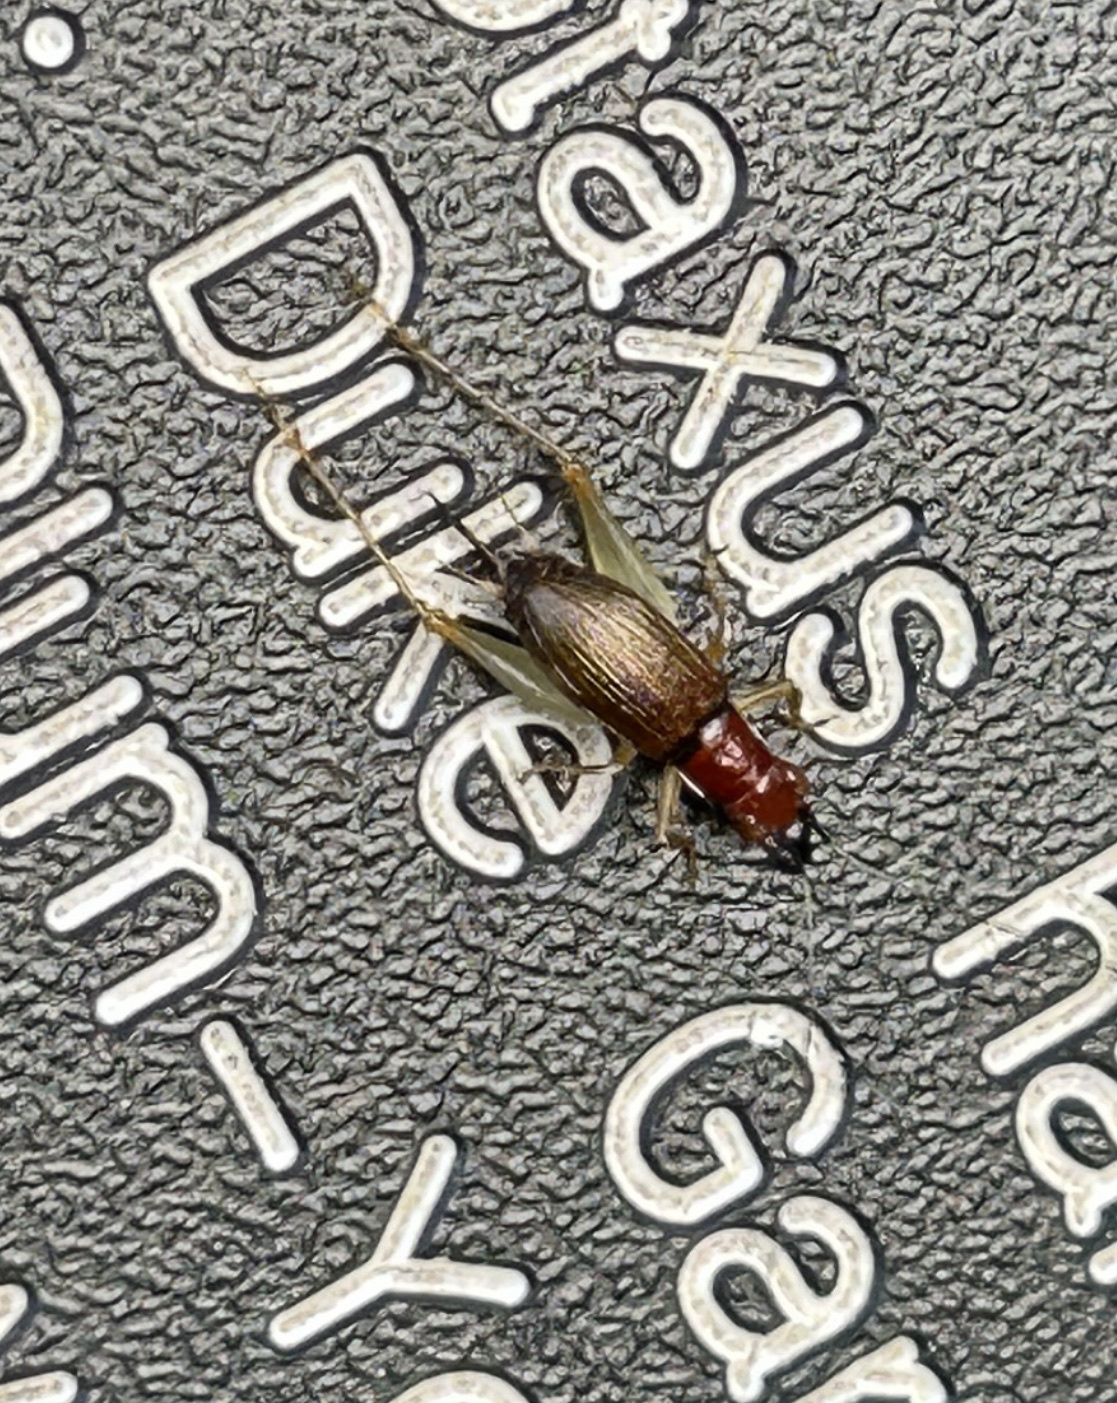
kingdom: Animalia
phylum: Arthropoda
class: Insecta
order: Orthoptera
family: Trigonidiidae
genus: Phyllopalpus
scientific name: Phyllopalpus pulchellus
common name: Handsome trig
